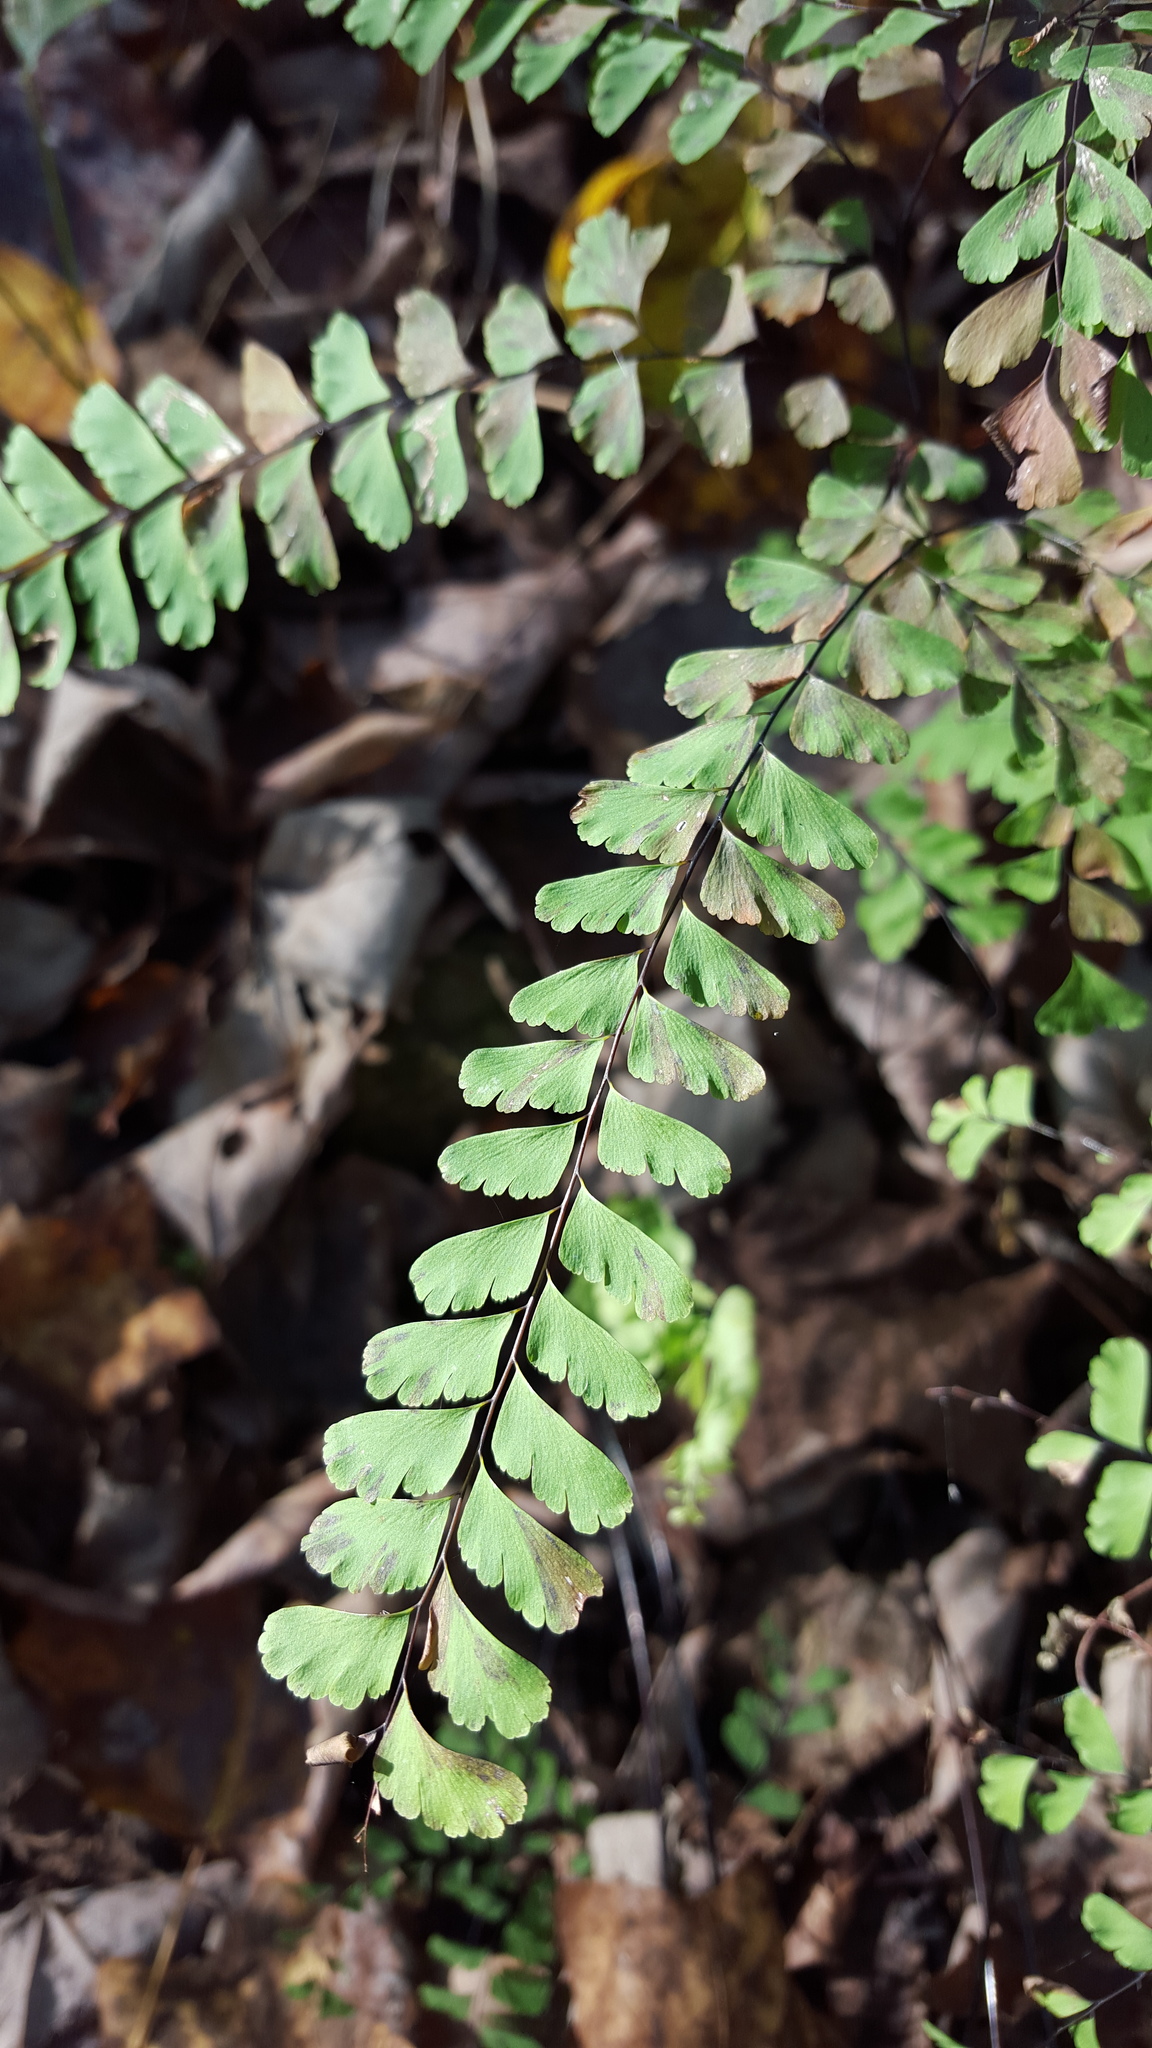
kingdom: Plantae
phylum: Tracheophyta
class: Polypodiopsida
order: Polypodiales
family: Pteridaceae
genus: Adiantum
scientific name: Adiantum pedatum
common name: Five-finger fern
